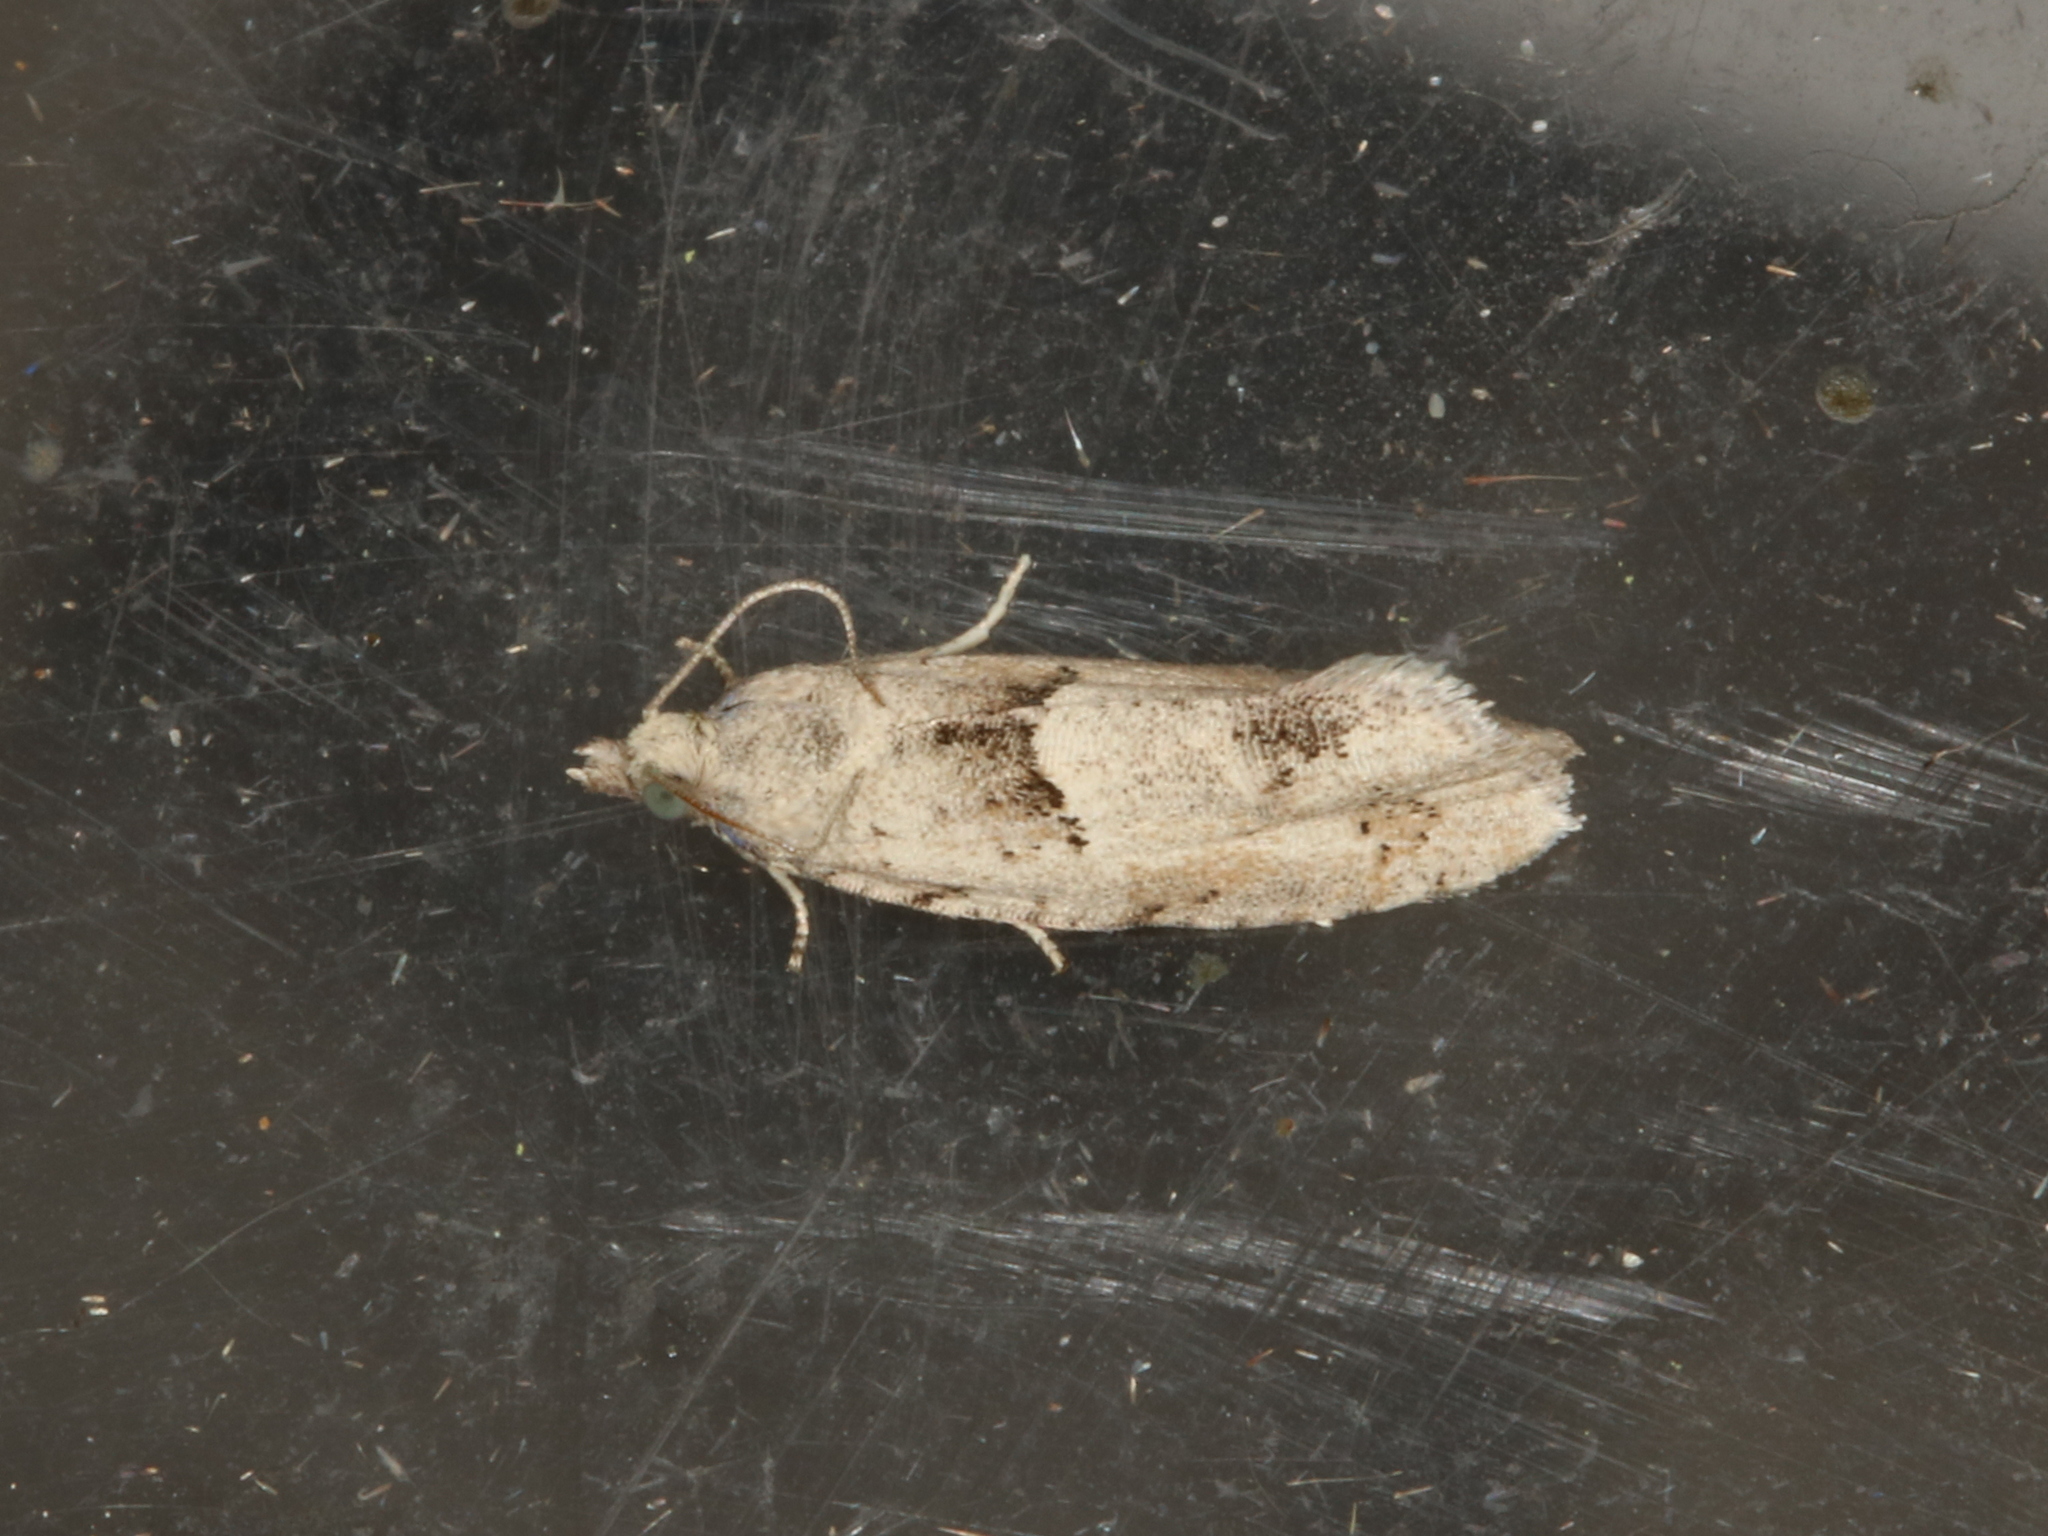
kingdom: Animalia
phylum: Arthropoda
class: Insecta
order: Lepidoptera
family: Tortricidae
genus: Epinotia
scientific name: Epinotia bilunana
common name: Crescent bell
